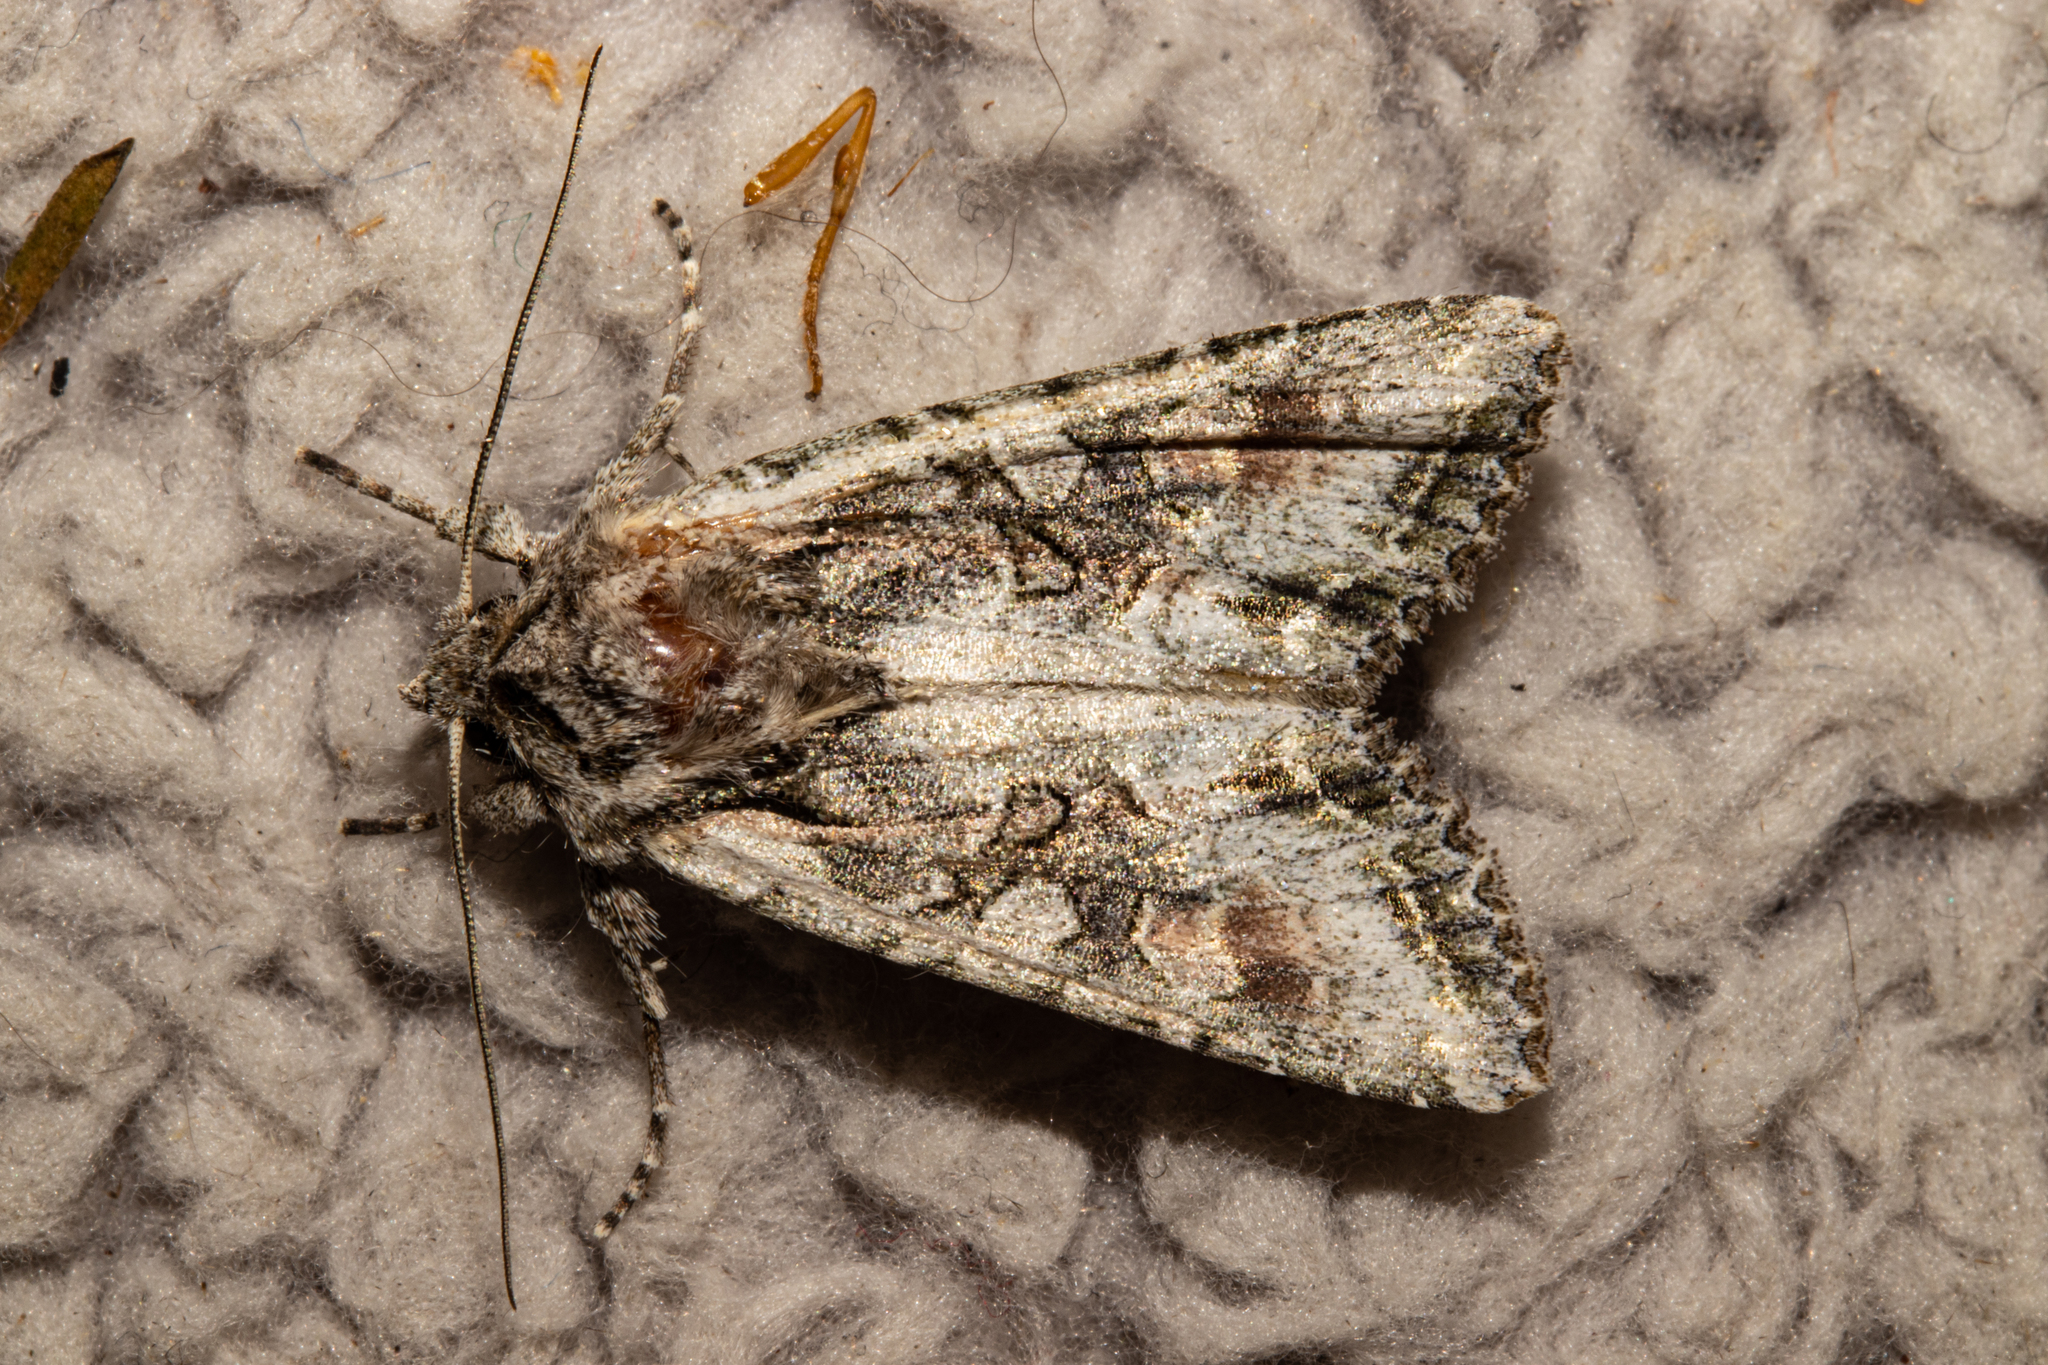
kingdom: Animalia
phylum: Arthropoda
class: Insecta
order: Lepidoptera
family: Noctuidae
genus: Ichneutica
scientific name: Ichneutica mutans
